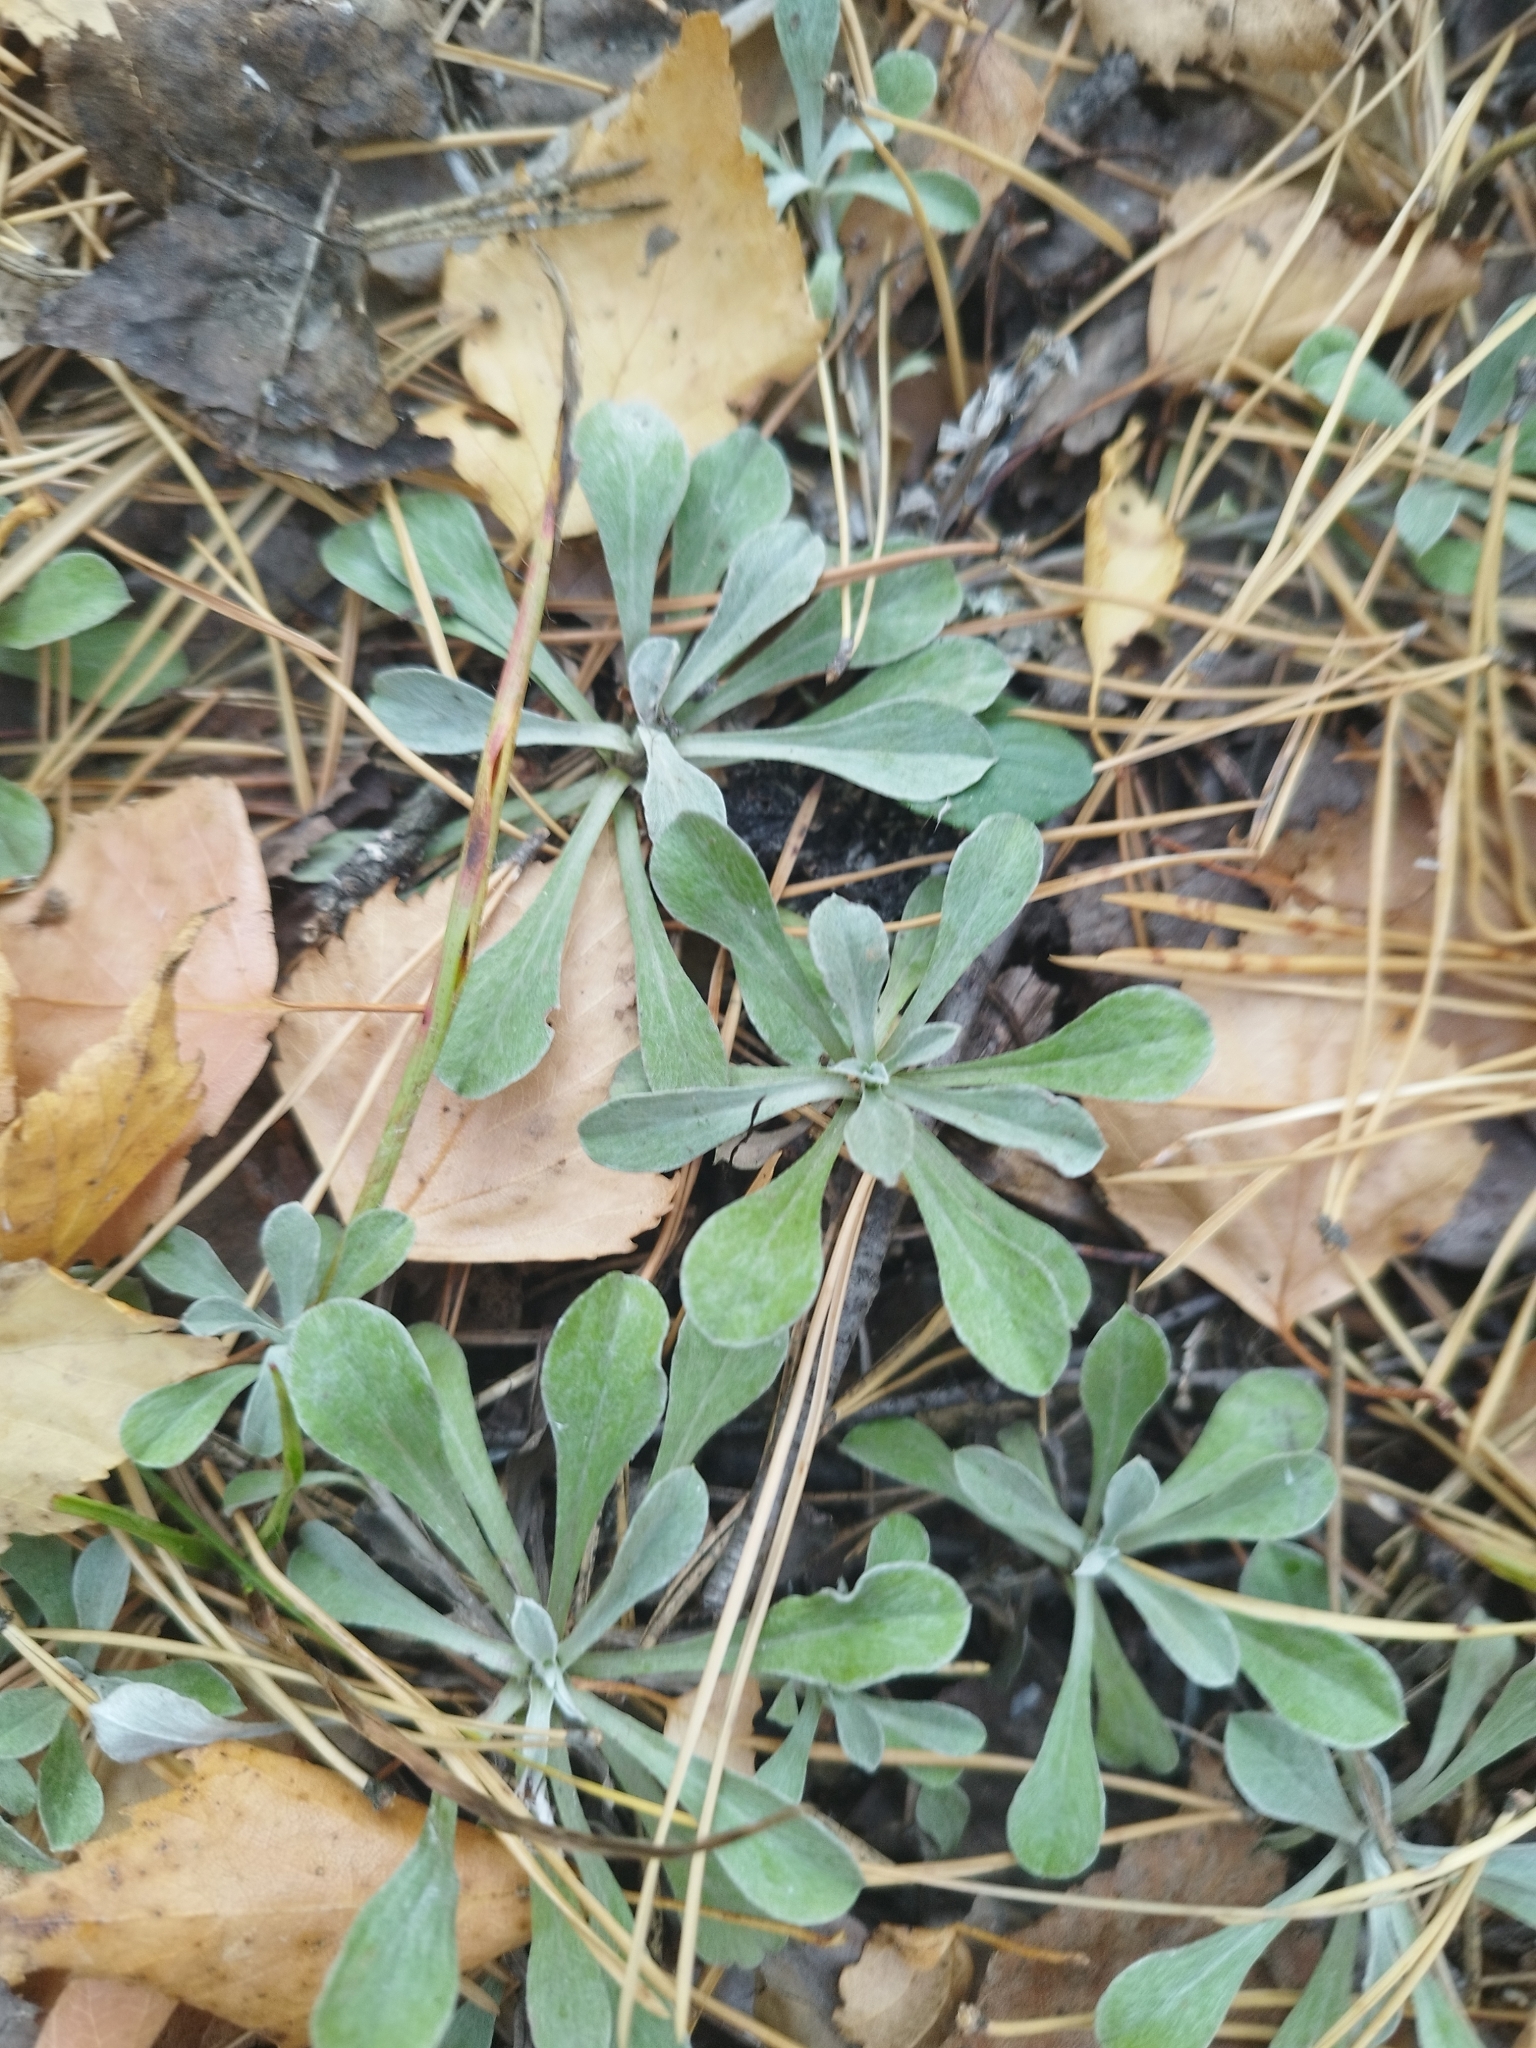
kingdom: Plantae
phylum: Tracheophyta
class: Magnoliopsida
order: Asterales
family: Asteraceae
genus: Antennaria
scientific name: Antennaria dioica
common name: Mountain everlasting
